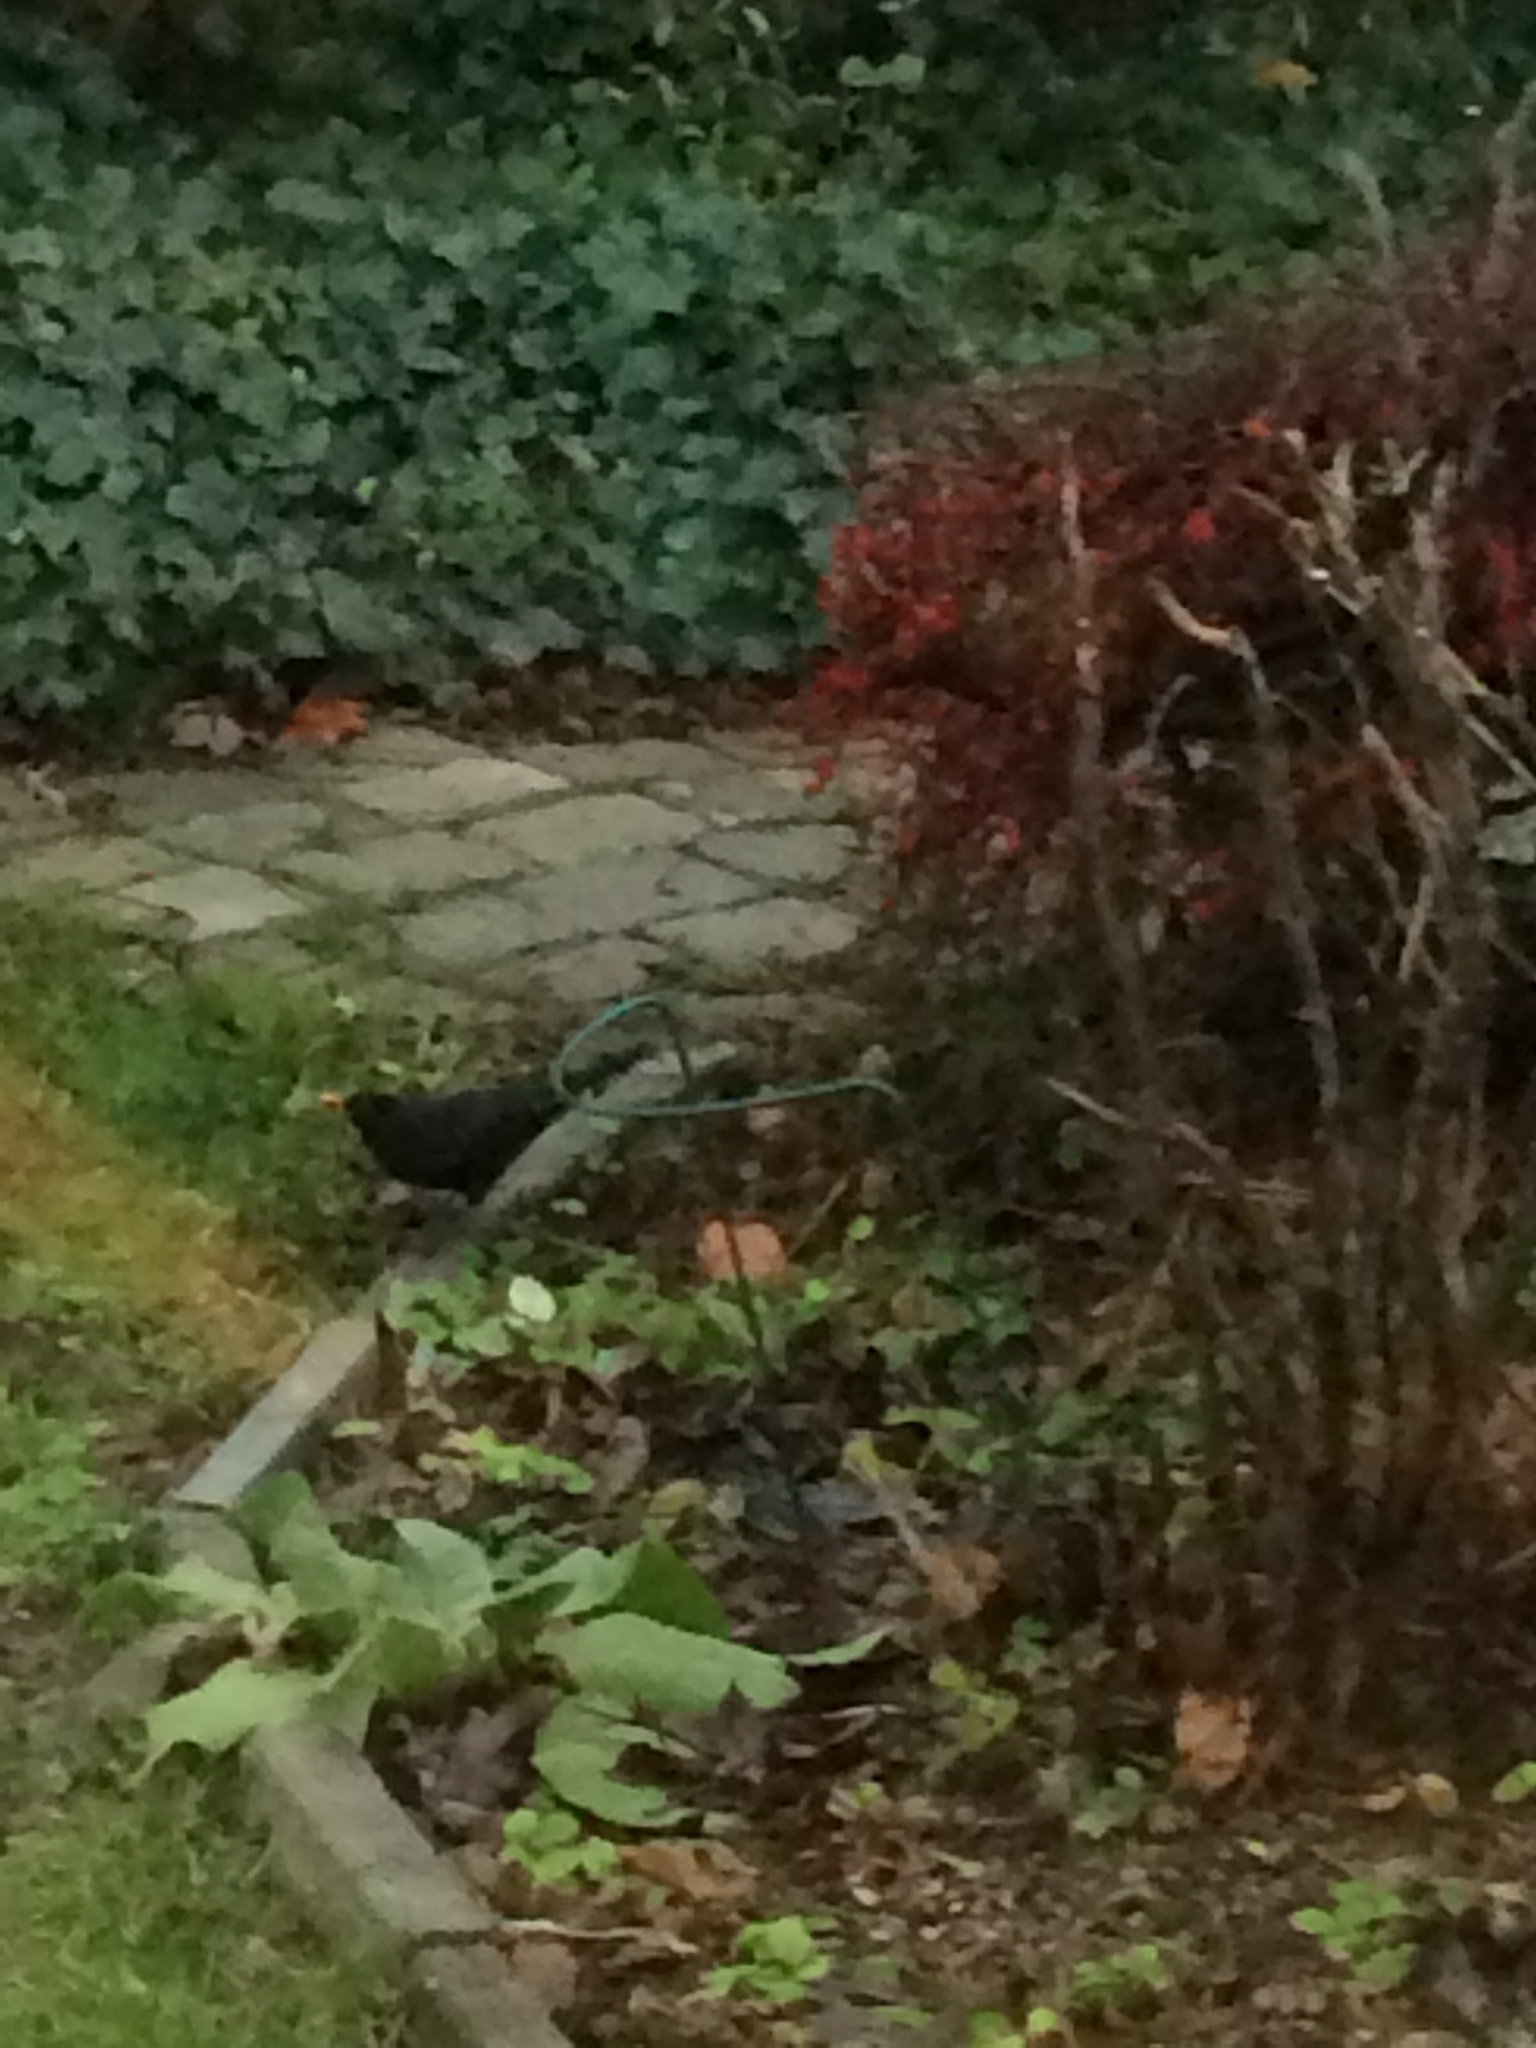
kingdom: Animalia
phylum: Chordata
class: Aves
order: Passeriformes
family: Turdidae
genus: Turdus
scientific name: Turdus merula
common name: Common blackbird
